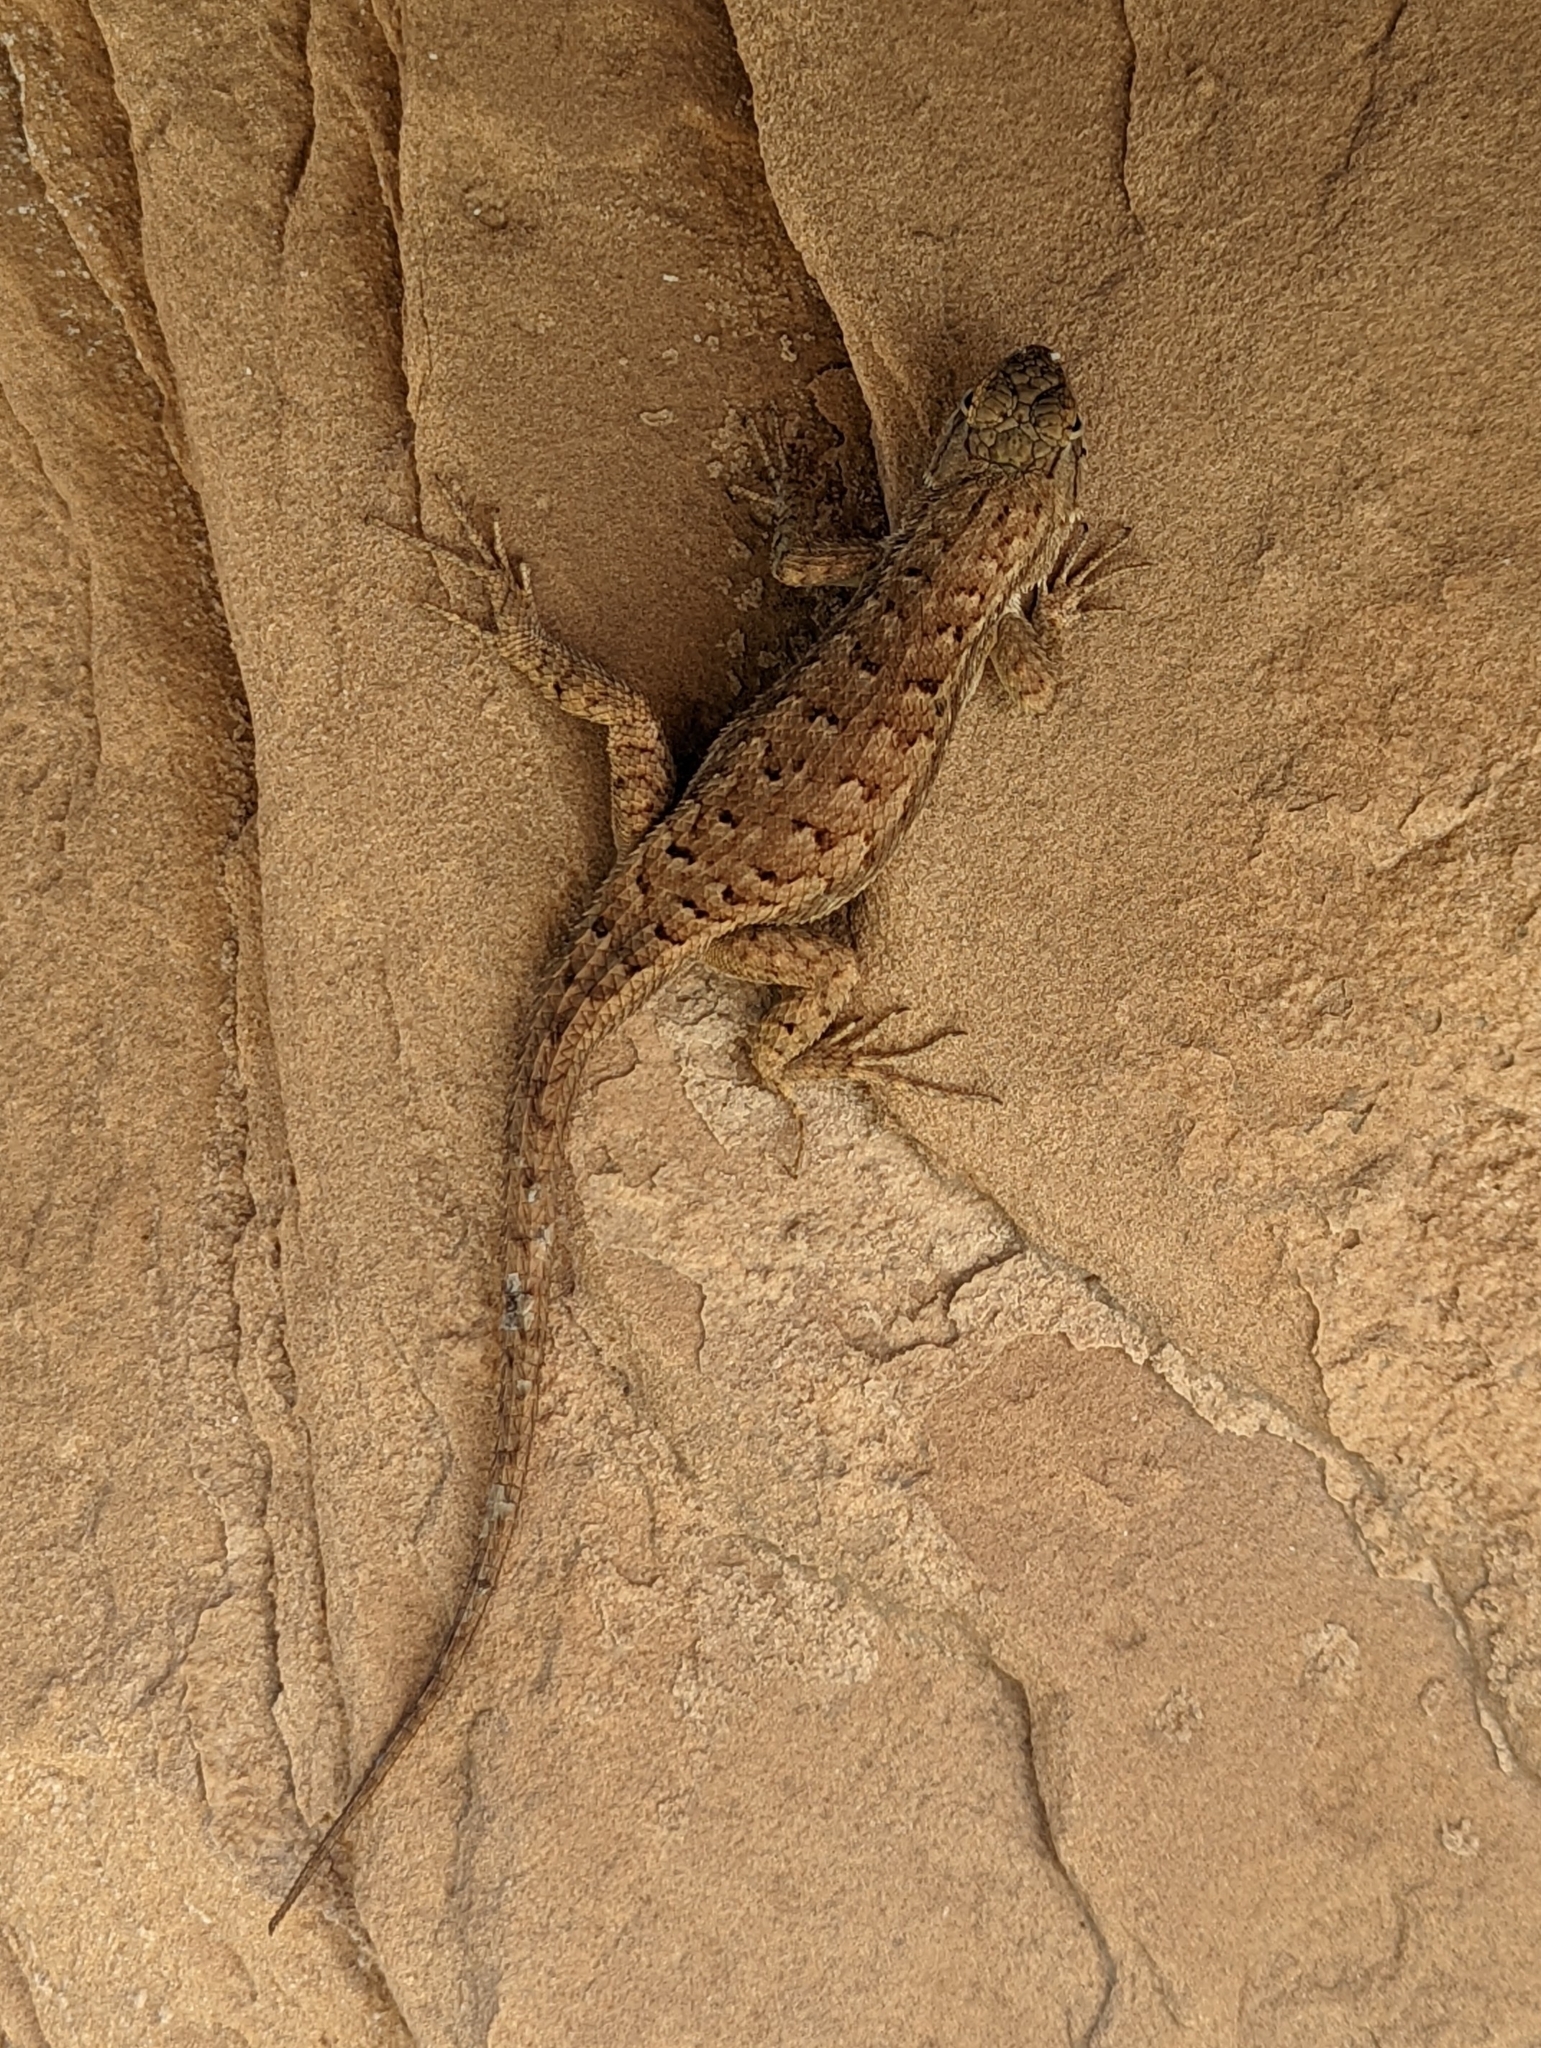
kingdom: Animalia
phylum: Chordata
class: Squamata
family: Phrynosomatidae
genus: Sceloporus
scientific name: Sceloporus tristichus
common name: Plateau fence lizard
